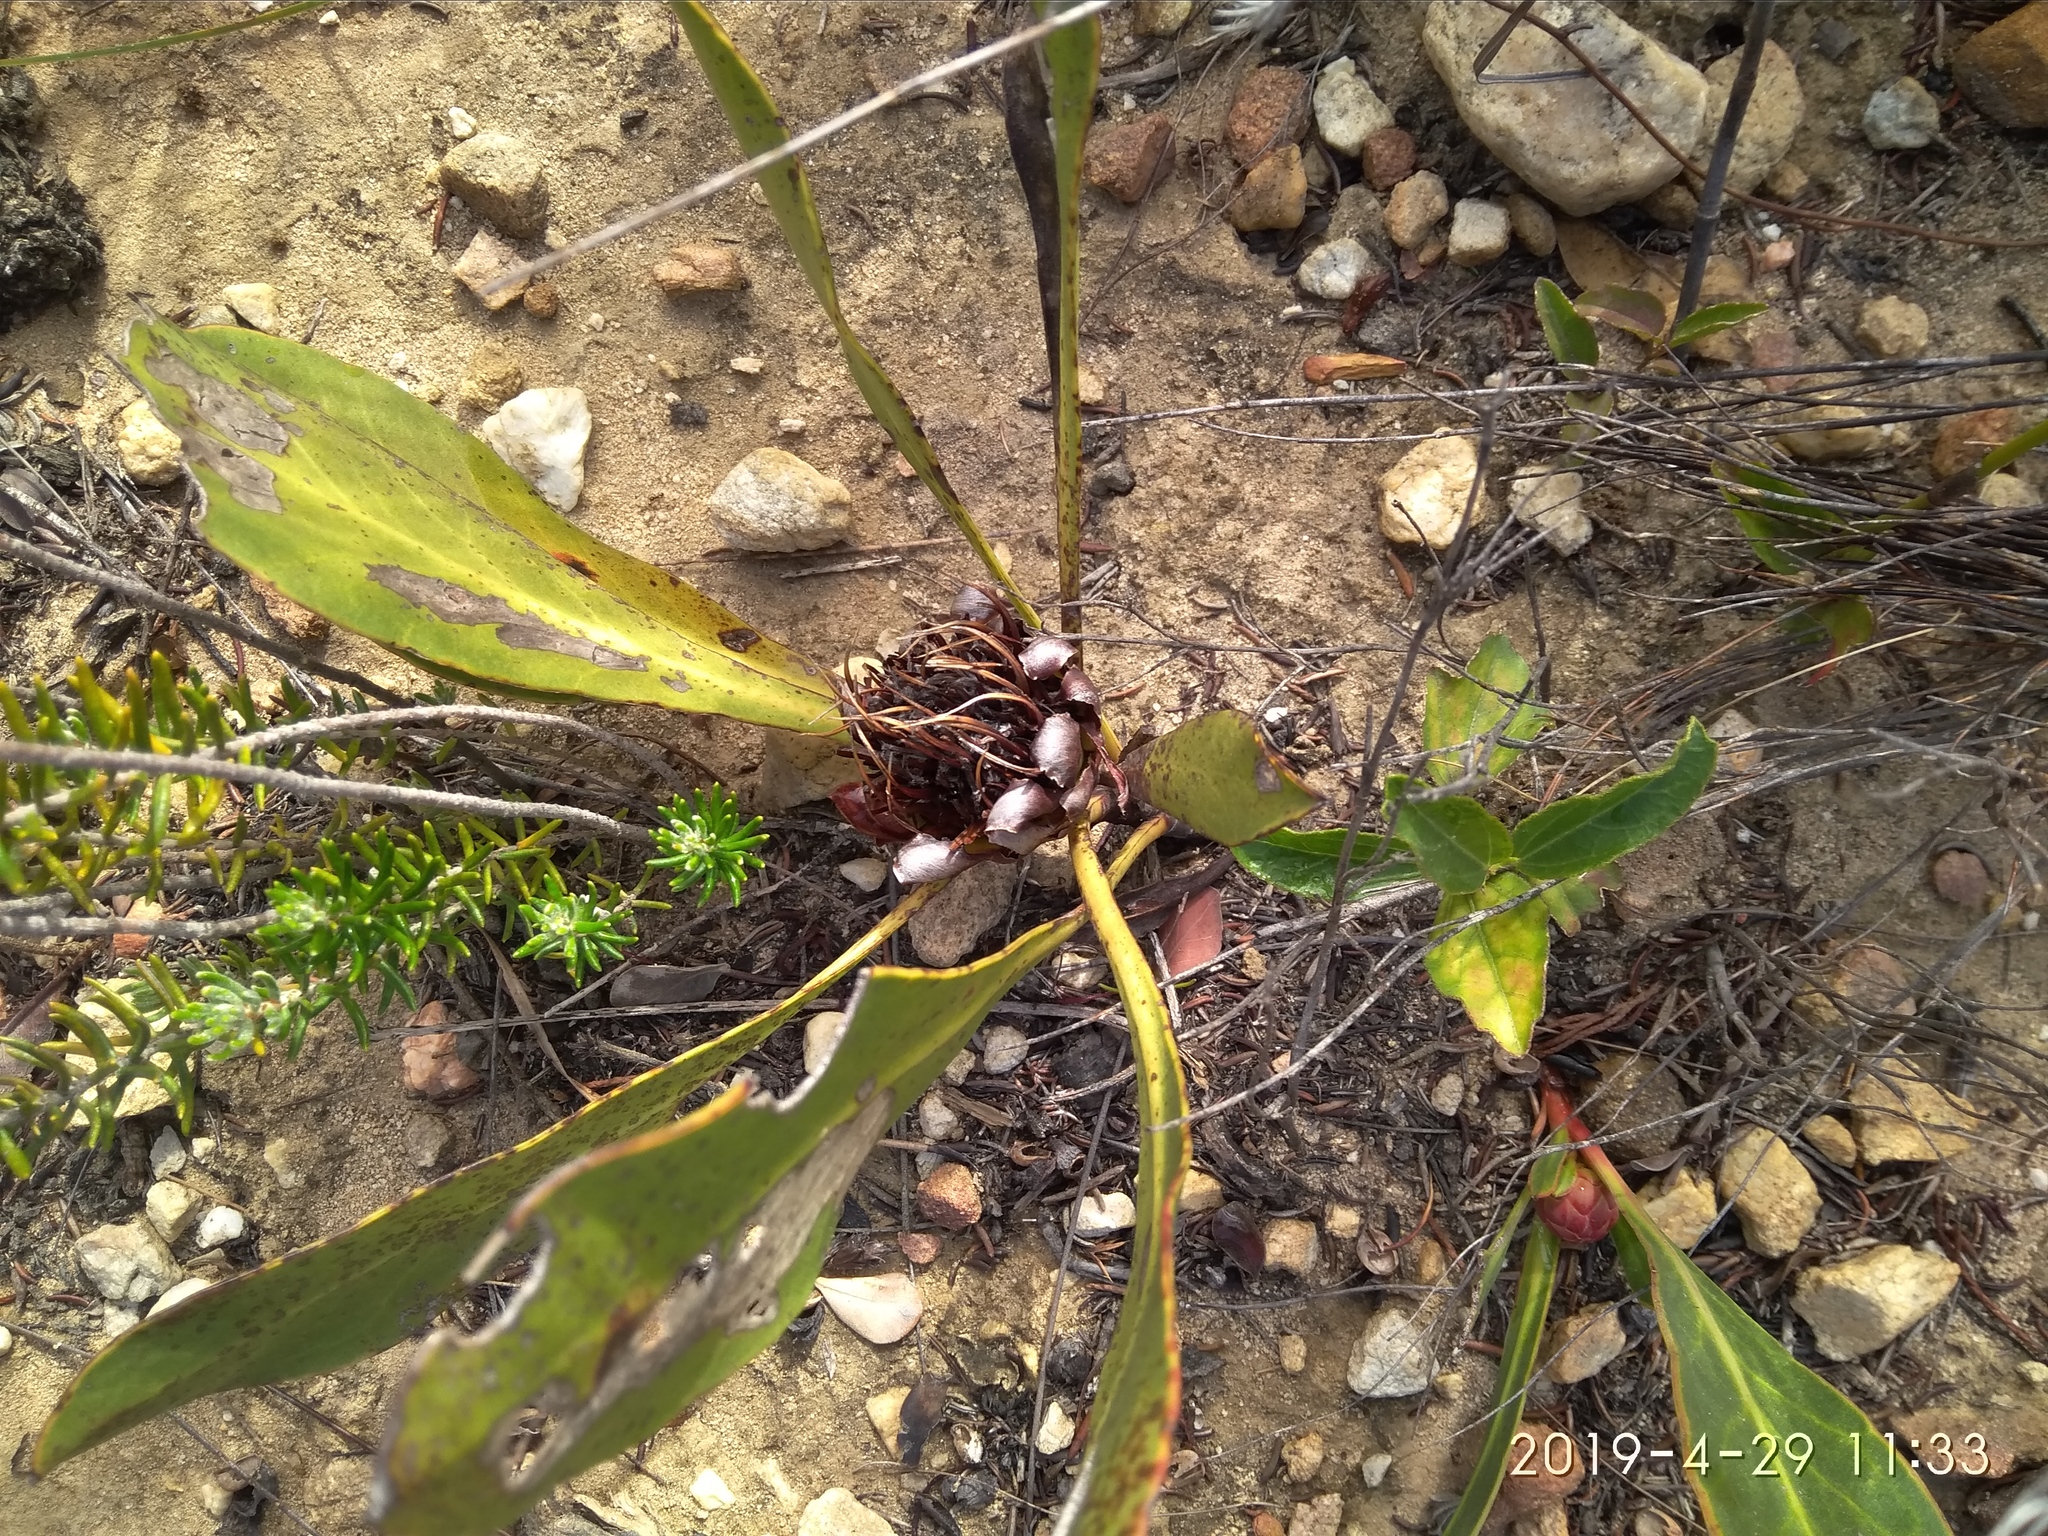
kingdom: Plantae
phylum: Tracheophyta
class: Magnoliopsida
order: Proteales
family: Proteaceae
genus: Protea
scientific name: Protea acaulos
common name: Common ground sugarbush
